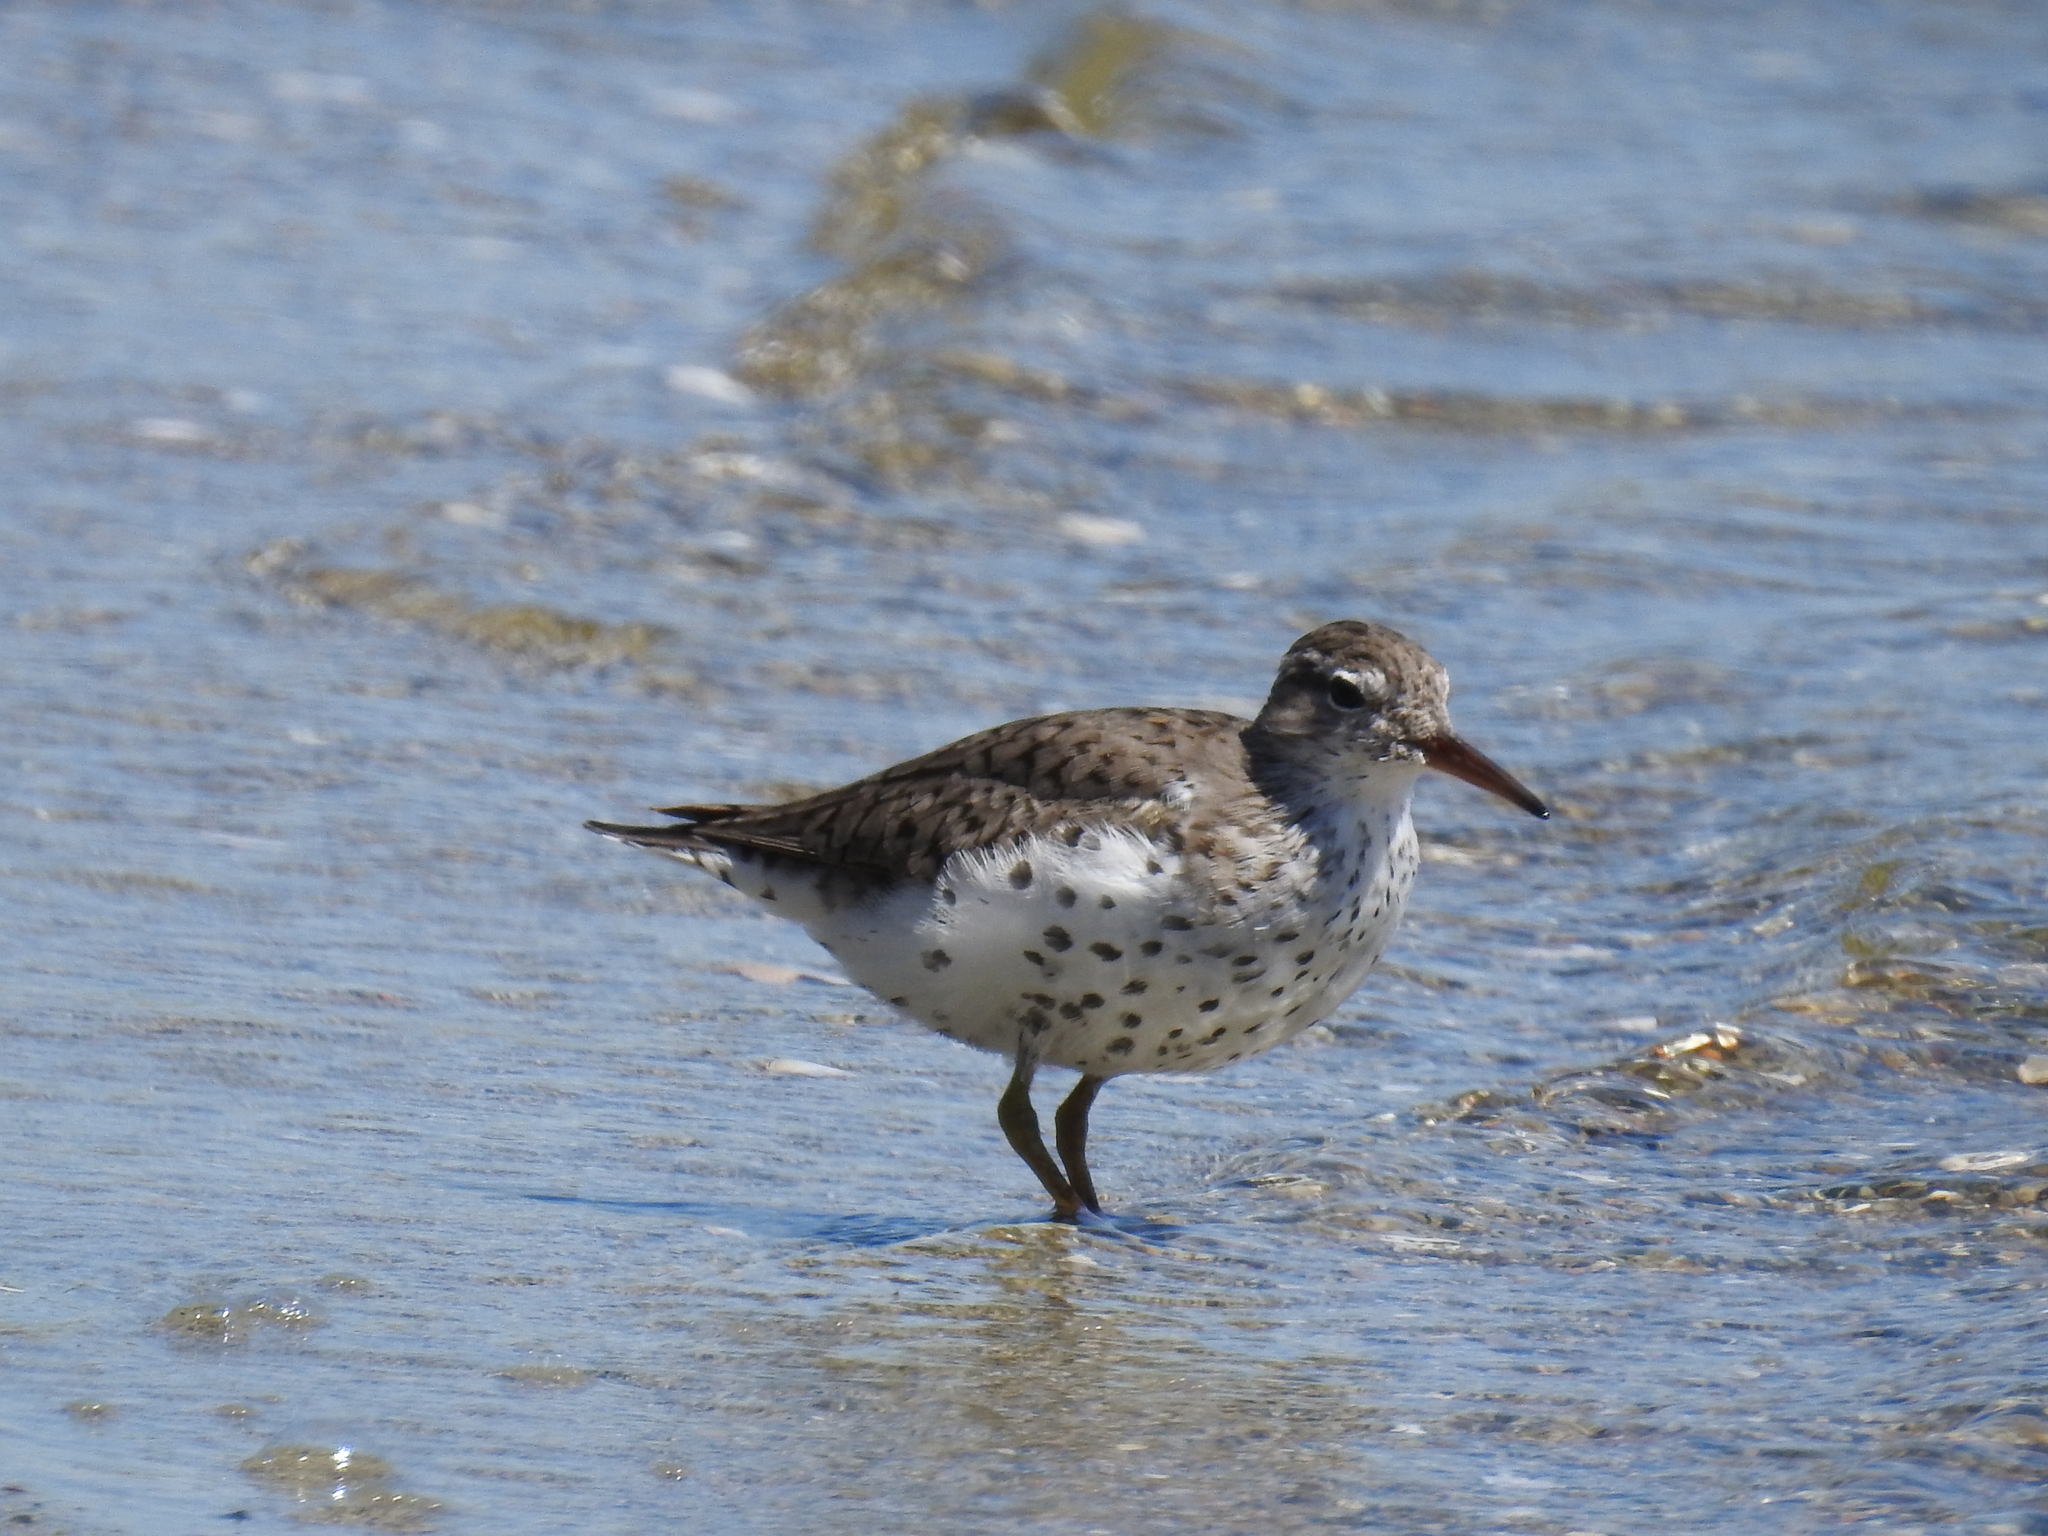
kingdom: Animalia
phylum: Chordata
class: Aves
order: Charadriiformes
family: Scolopacidae
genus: Actitis
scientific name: Actitis macularius
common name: Spotted sandpiper
